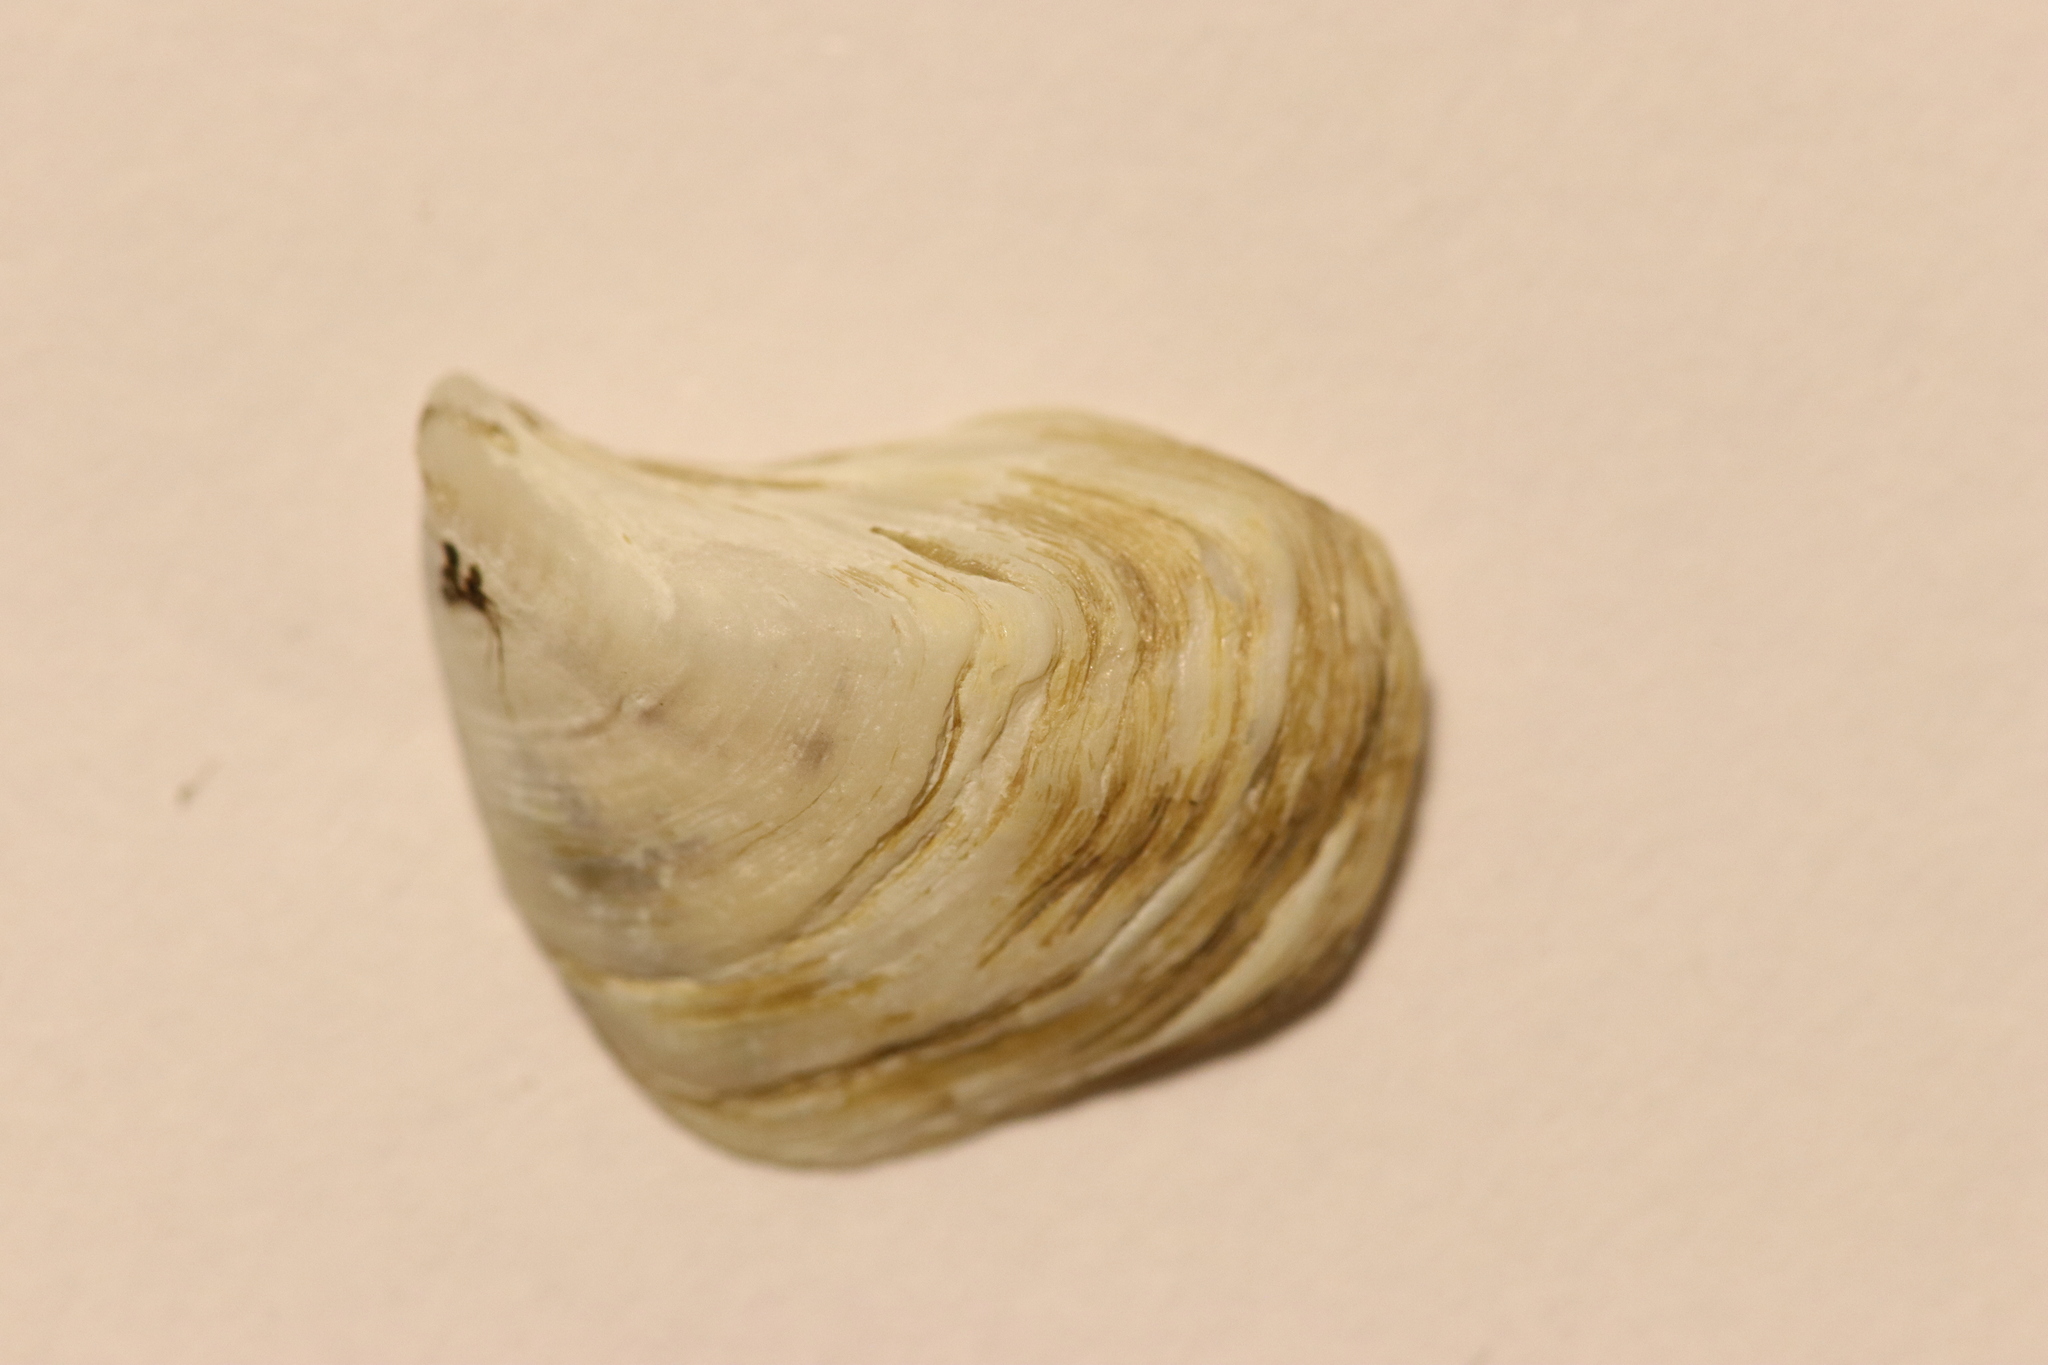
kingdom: Animalia
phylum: Mollusca
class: Bivalvia
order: Myida
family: Dreissenidae
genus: Dreissena
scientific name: Dreissena bugensis
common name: Quagga mussel
